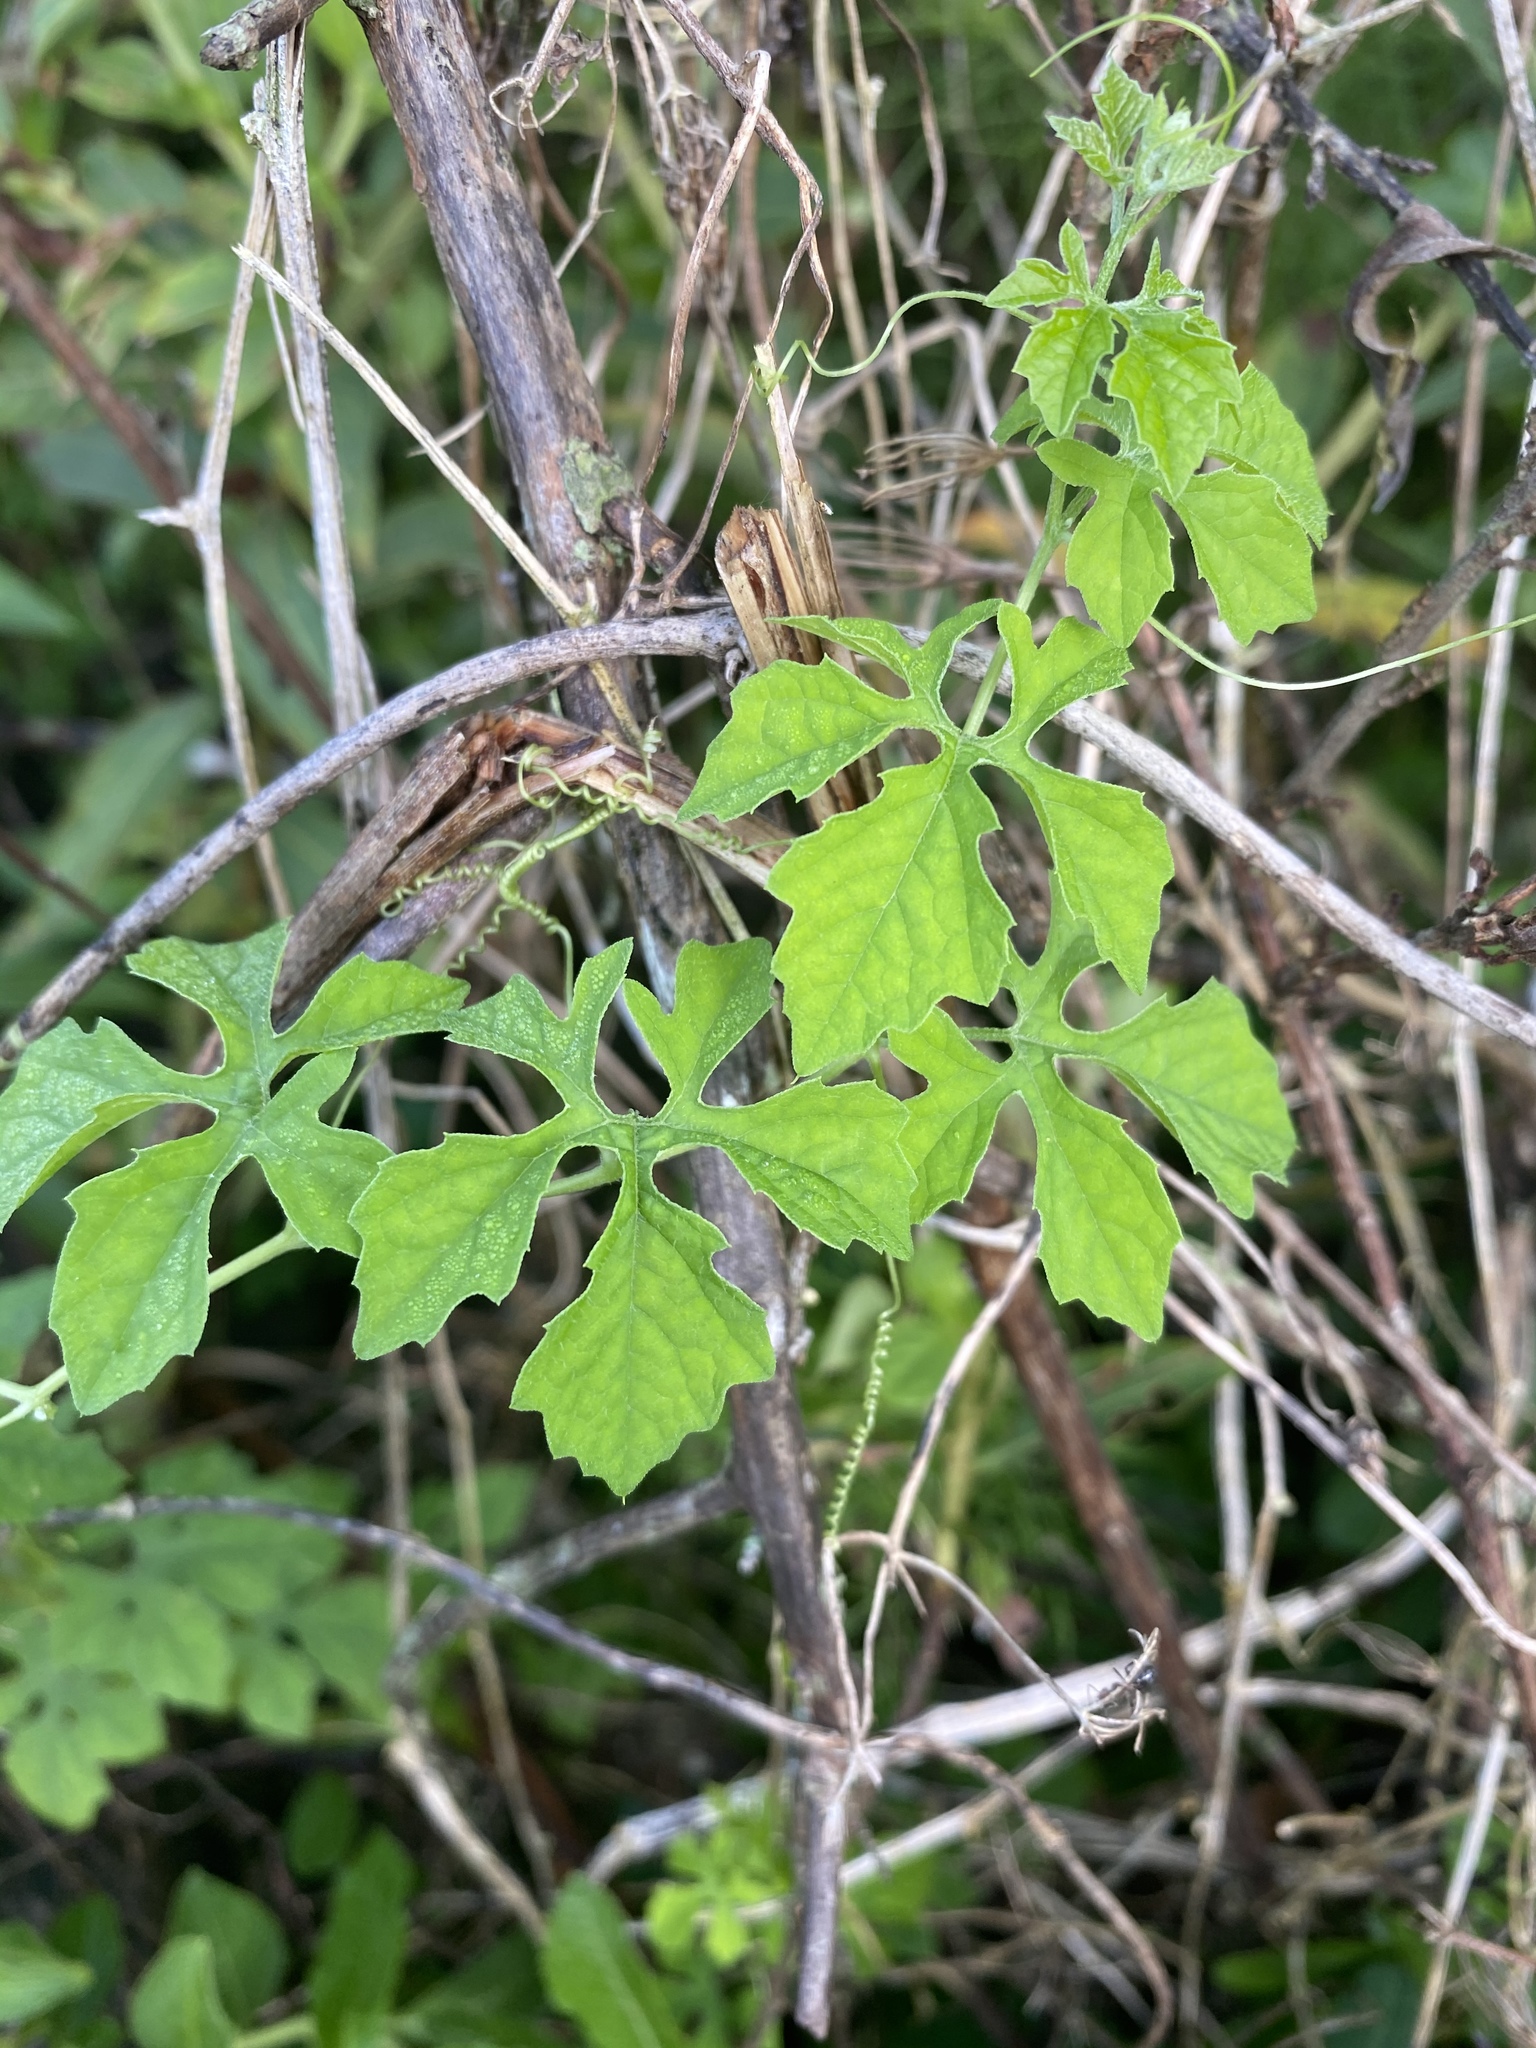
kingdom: Plantae
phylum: Tracheophyta
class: Magnoliopsida
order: Cucurbitales
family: Cucurbitaceae
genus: Momordica
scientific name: Momordica charantia
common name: Balsampear
